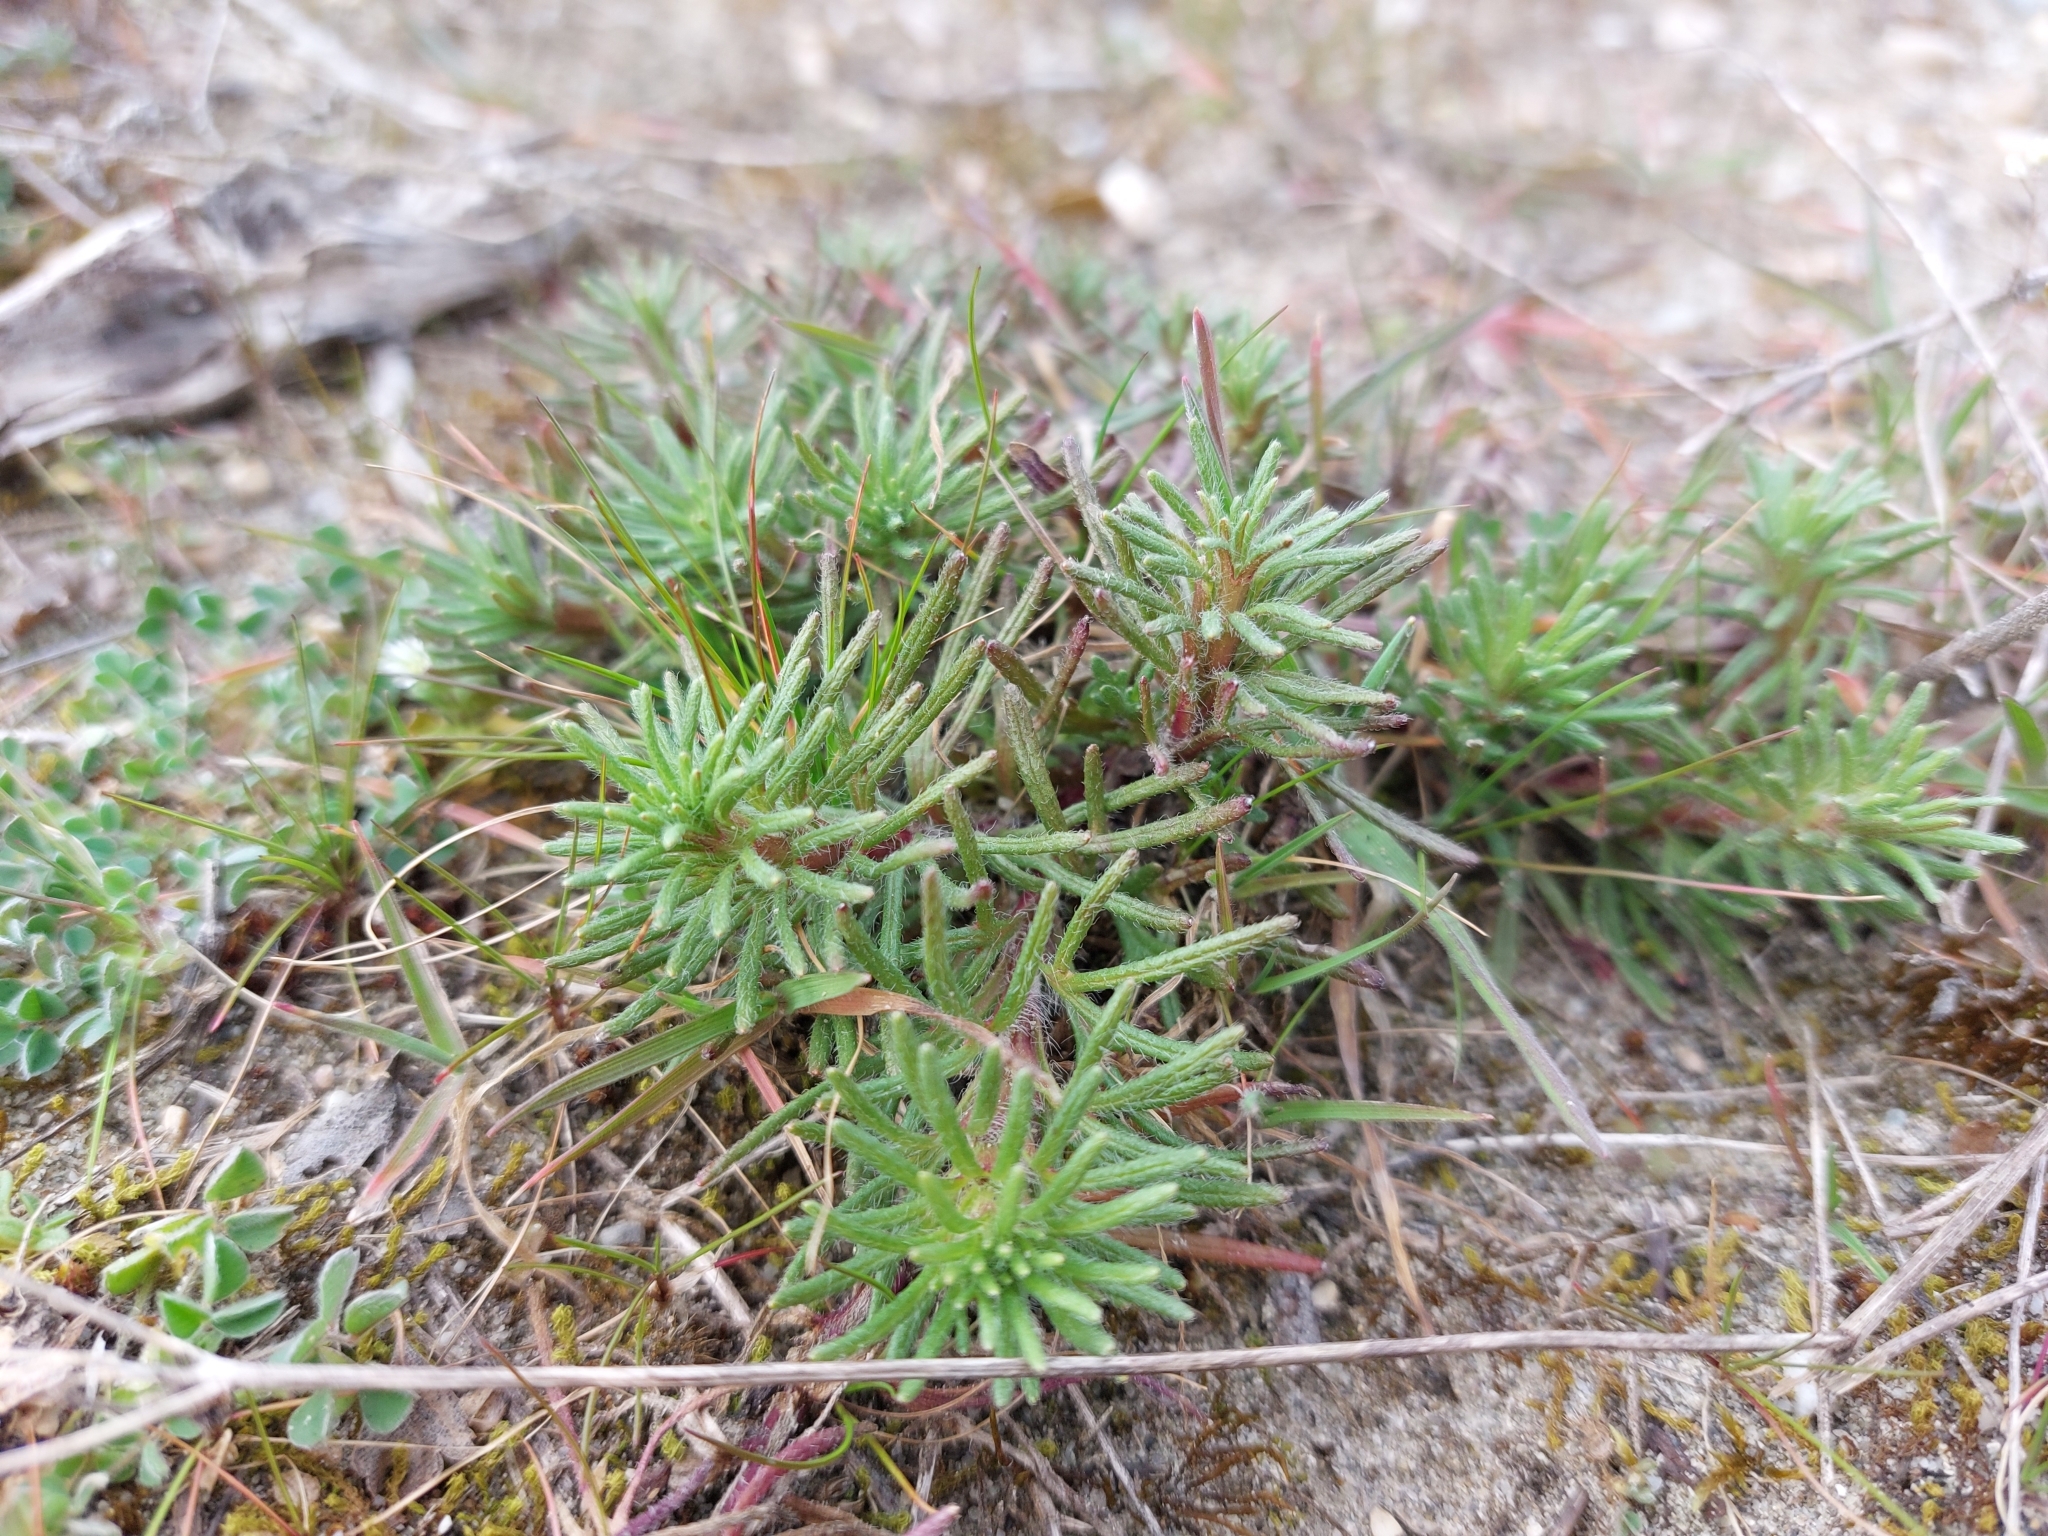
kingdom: Plantae
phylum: Tracheophyta
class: Magnoliopsida
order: Lamiales
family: Lamiaceae
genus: Ajuga
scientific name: Ajuga chamaepitys
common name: Ground-pine
